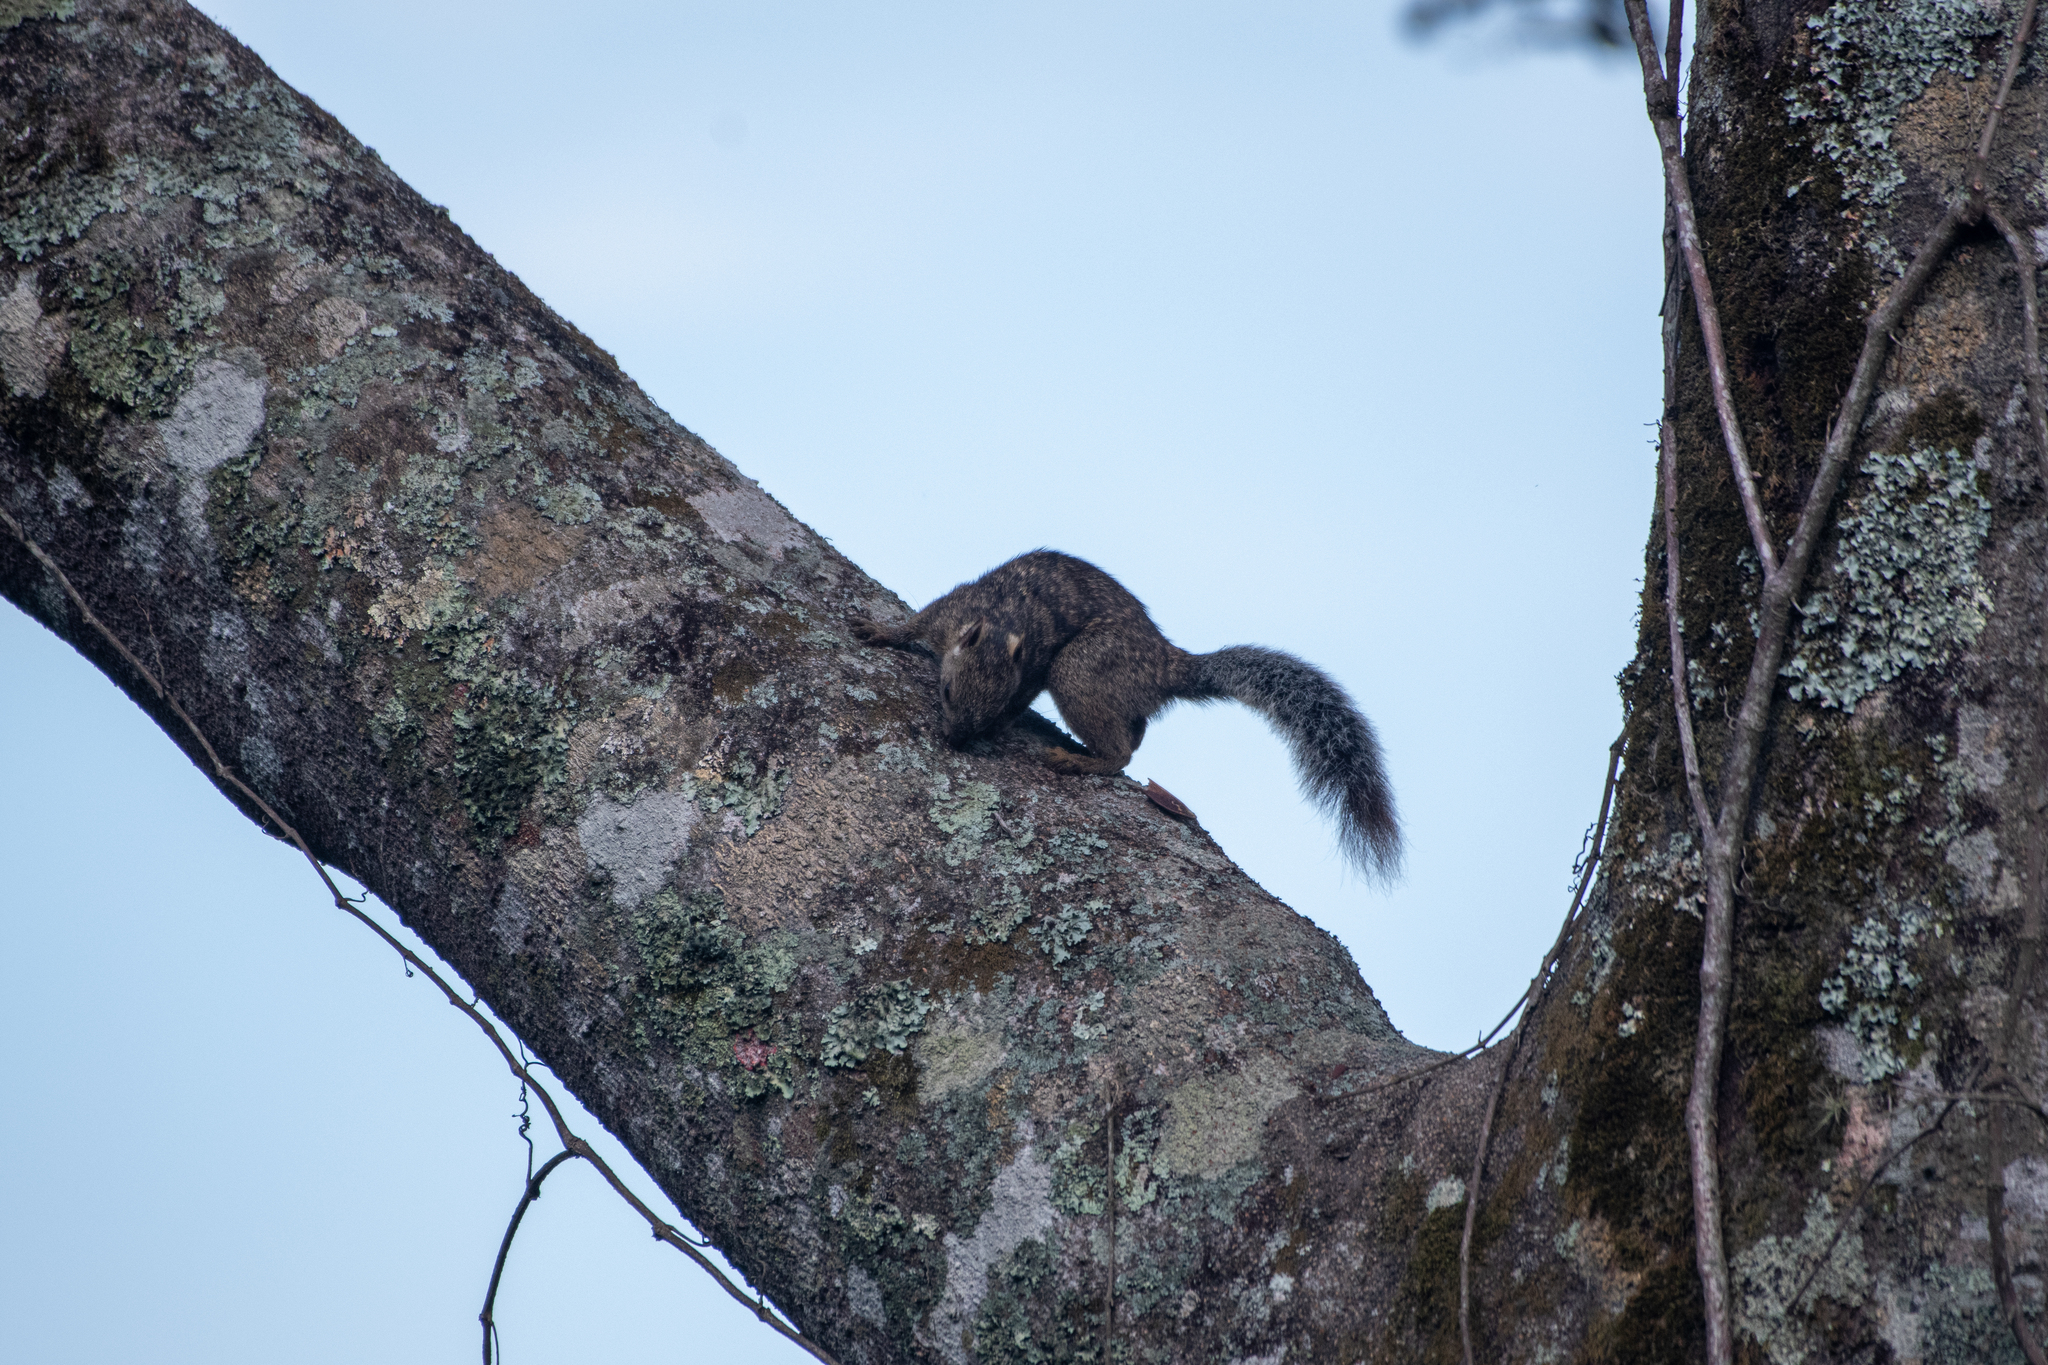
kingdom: Animalia
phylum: Chordata
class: Mammalia
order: Rodentia
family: Sciuridae
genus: Sciurus
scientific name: Sciurus variegatoides
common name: Variegated squirrel
